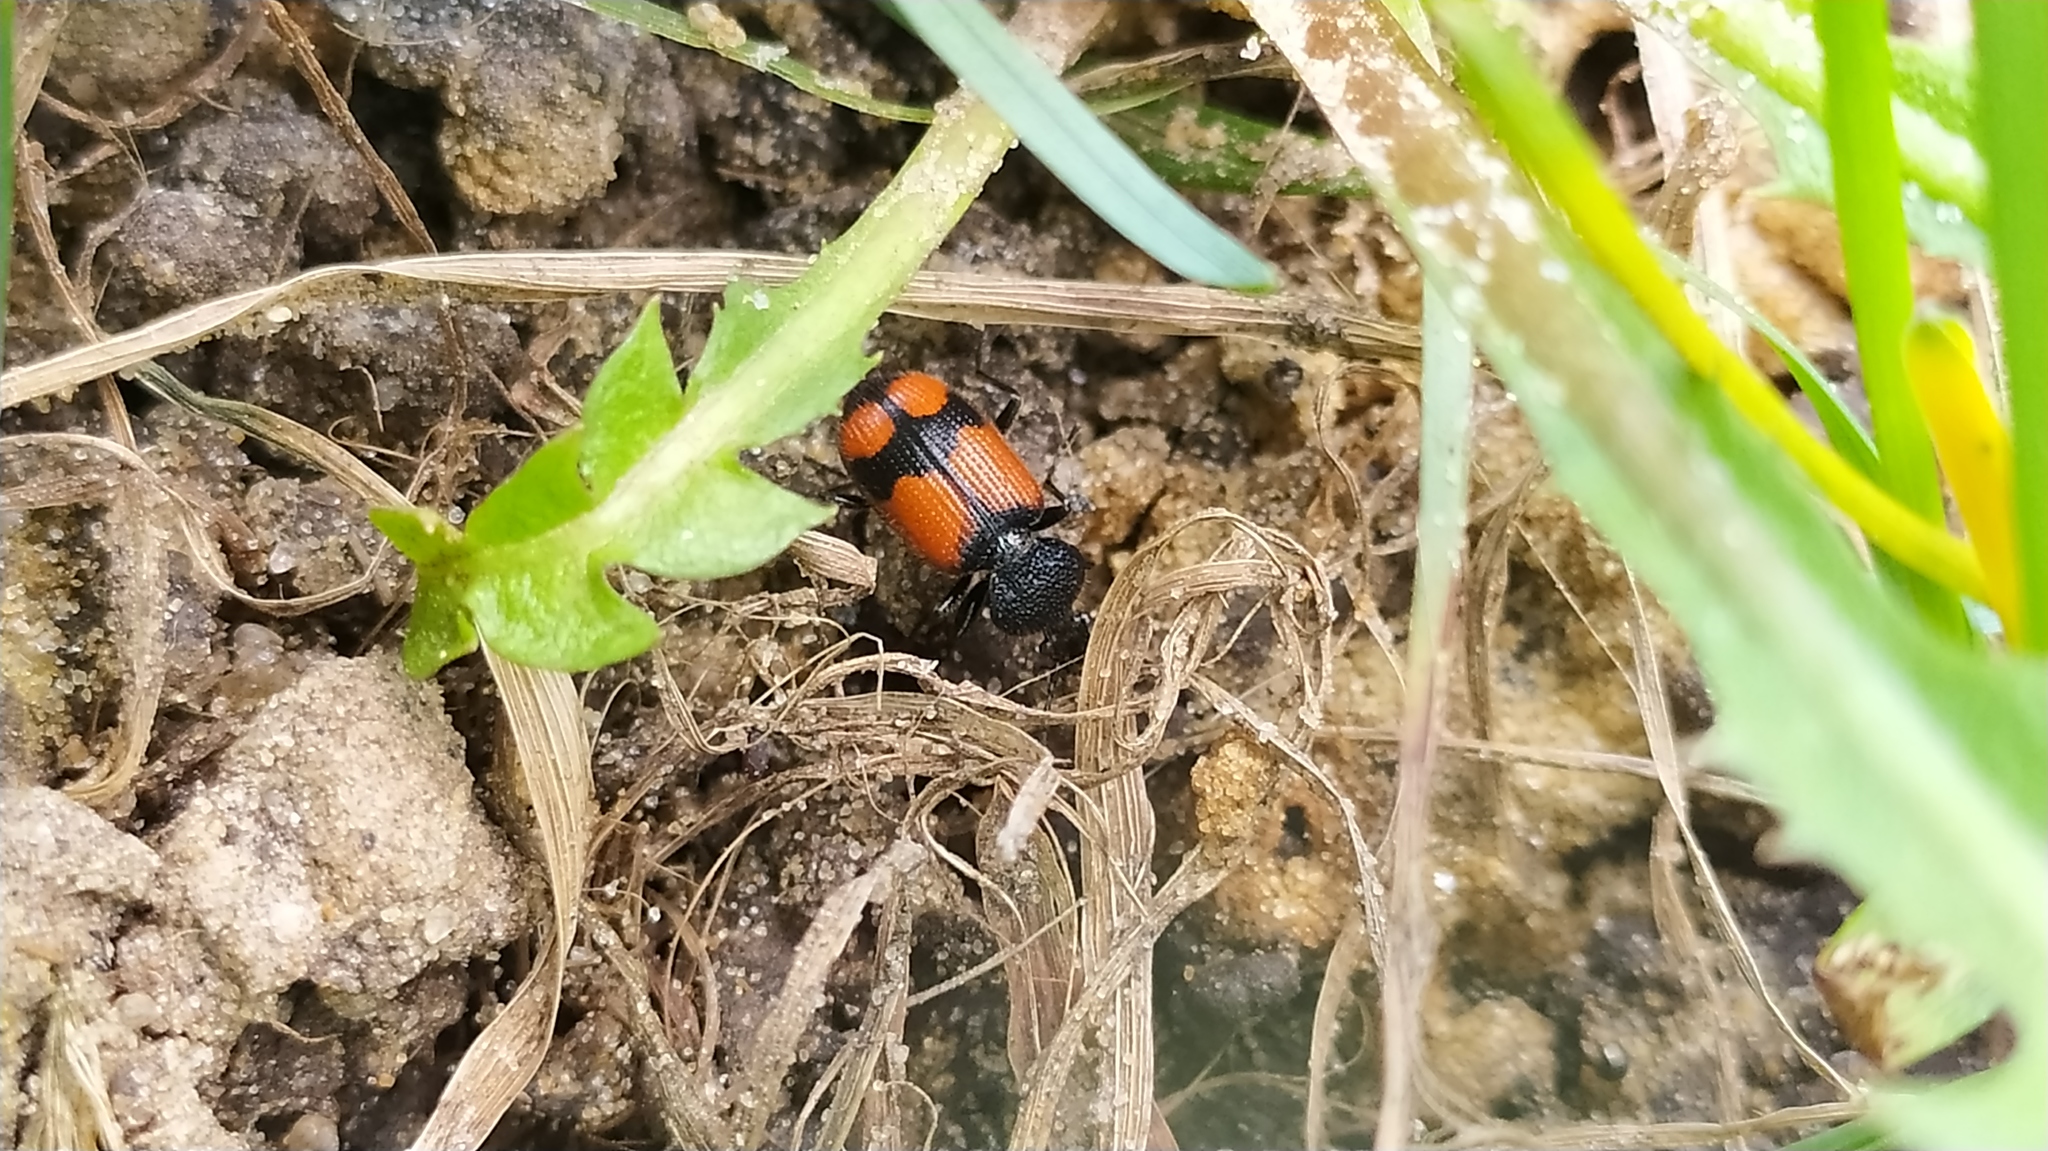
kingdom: Animalia
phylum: Arthropoda
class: Insecta
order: Coleoptera
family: Carabidae
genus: Panagaeus
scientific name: Panagaeus cruxmajor
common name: Crucifix ground beetle
